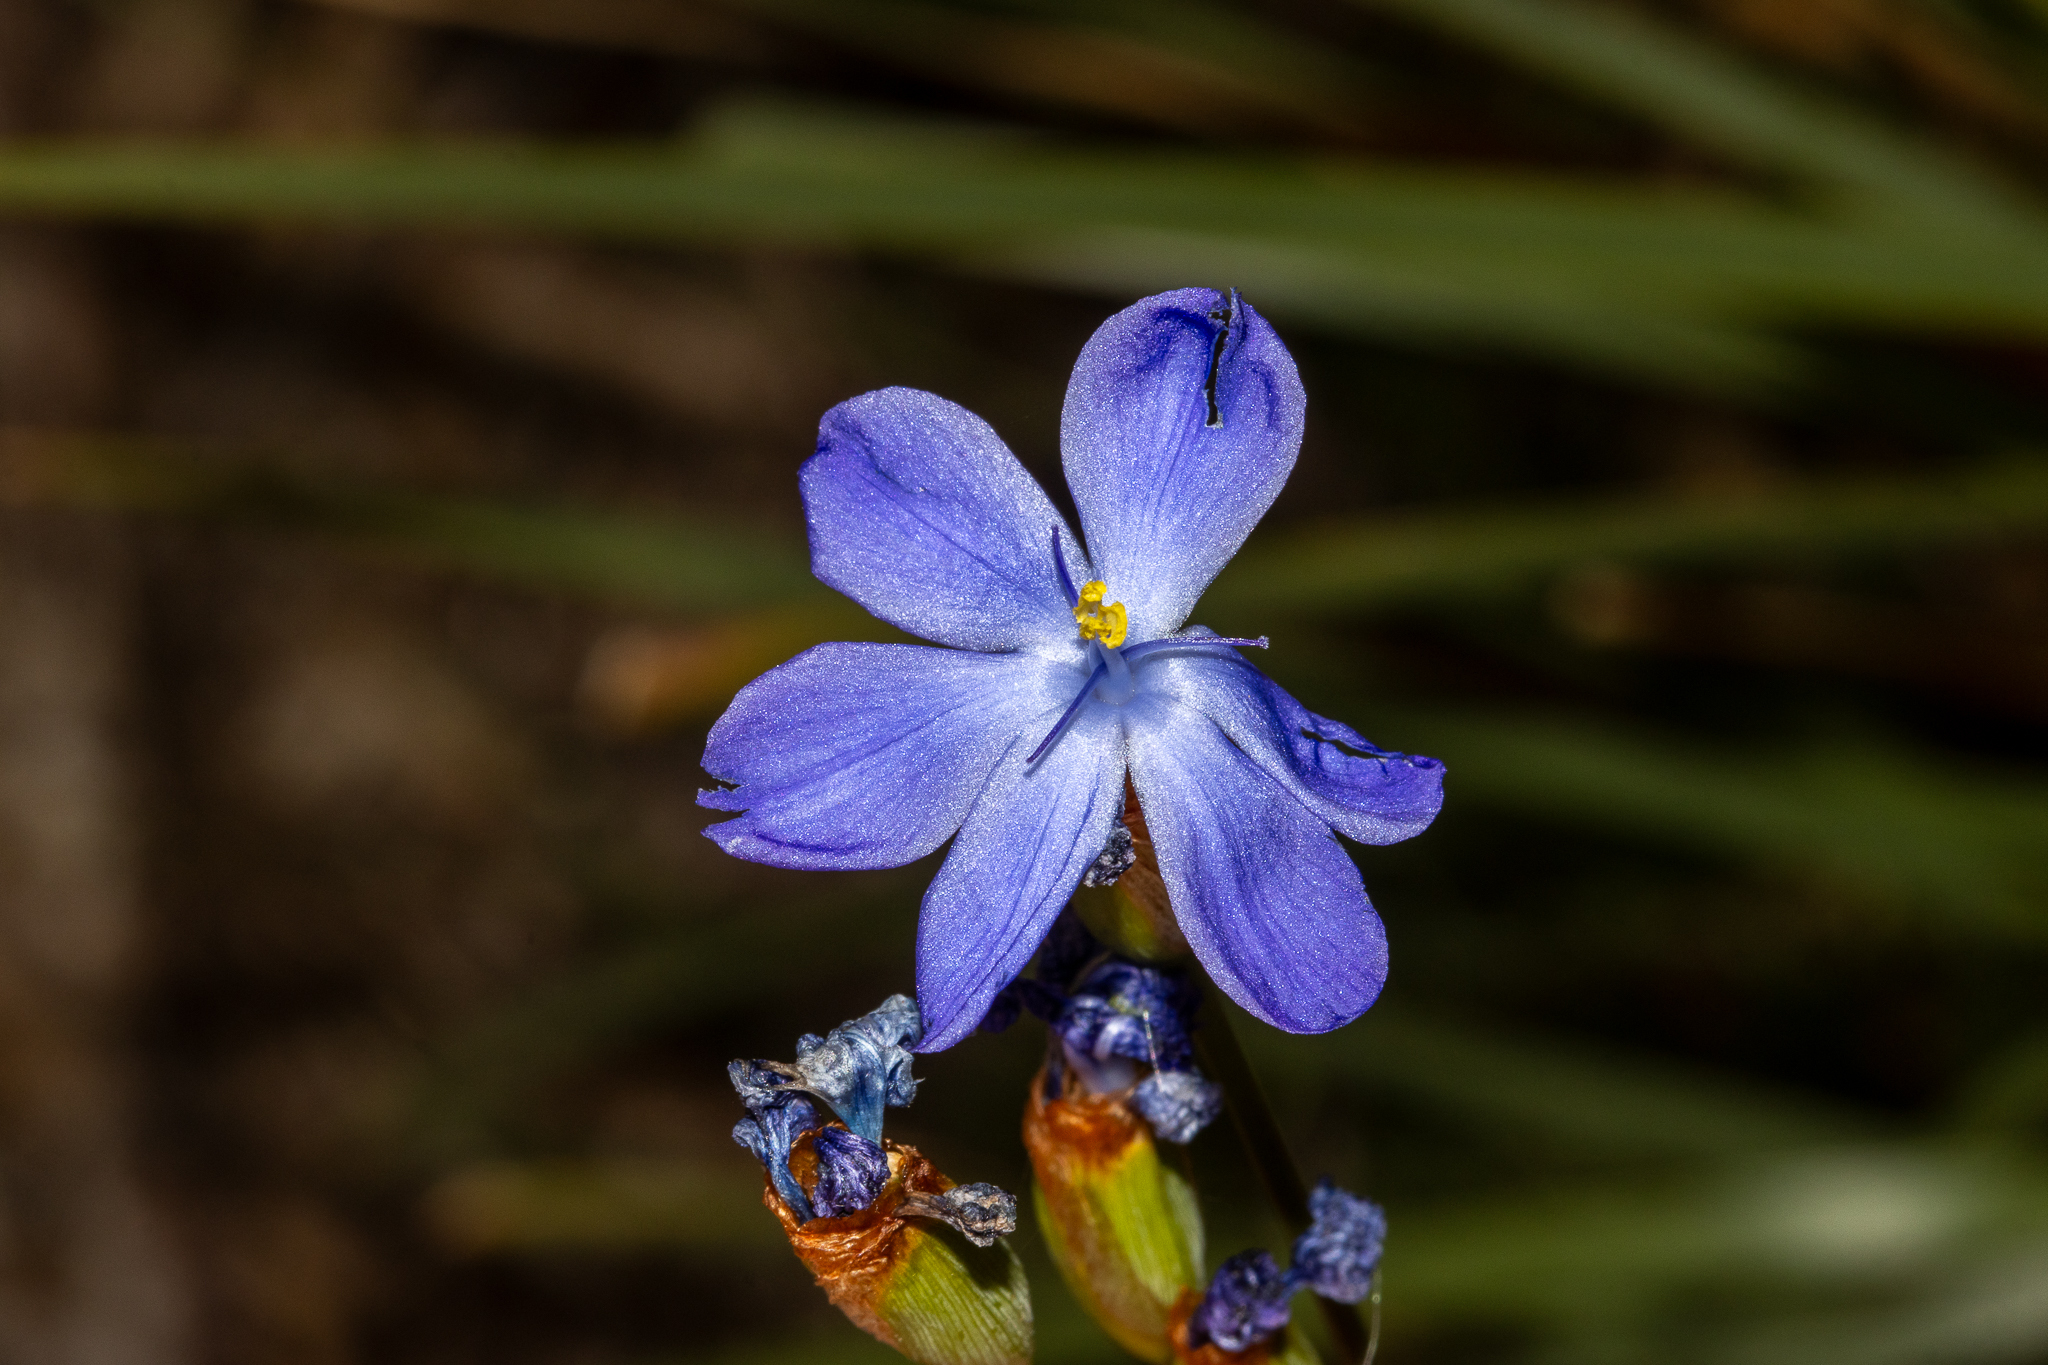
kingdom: Plantae
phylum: Tracheophyta
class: Liliopsida
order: Asparagales
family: Iridaceae
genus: Orthrosanthus
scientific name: Orthrosanthus multiflorus
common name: Morning-flag
